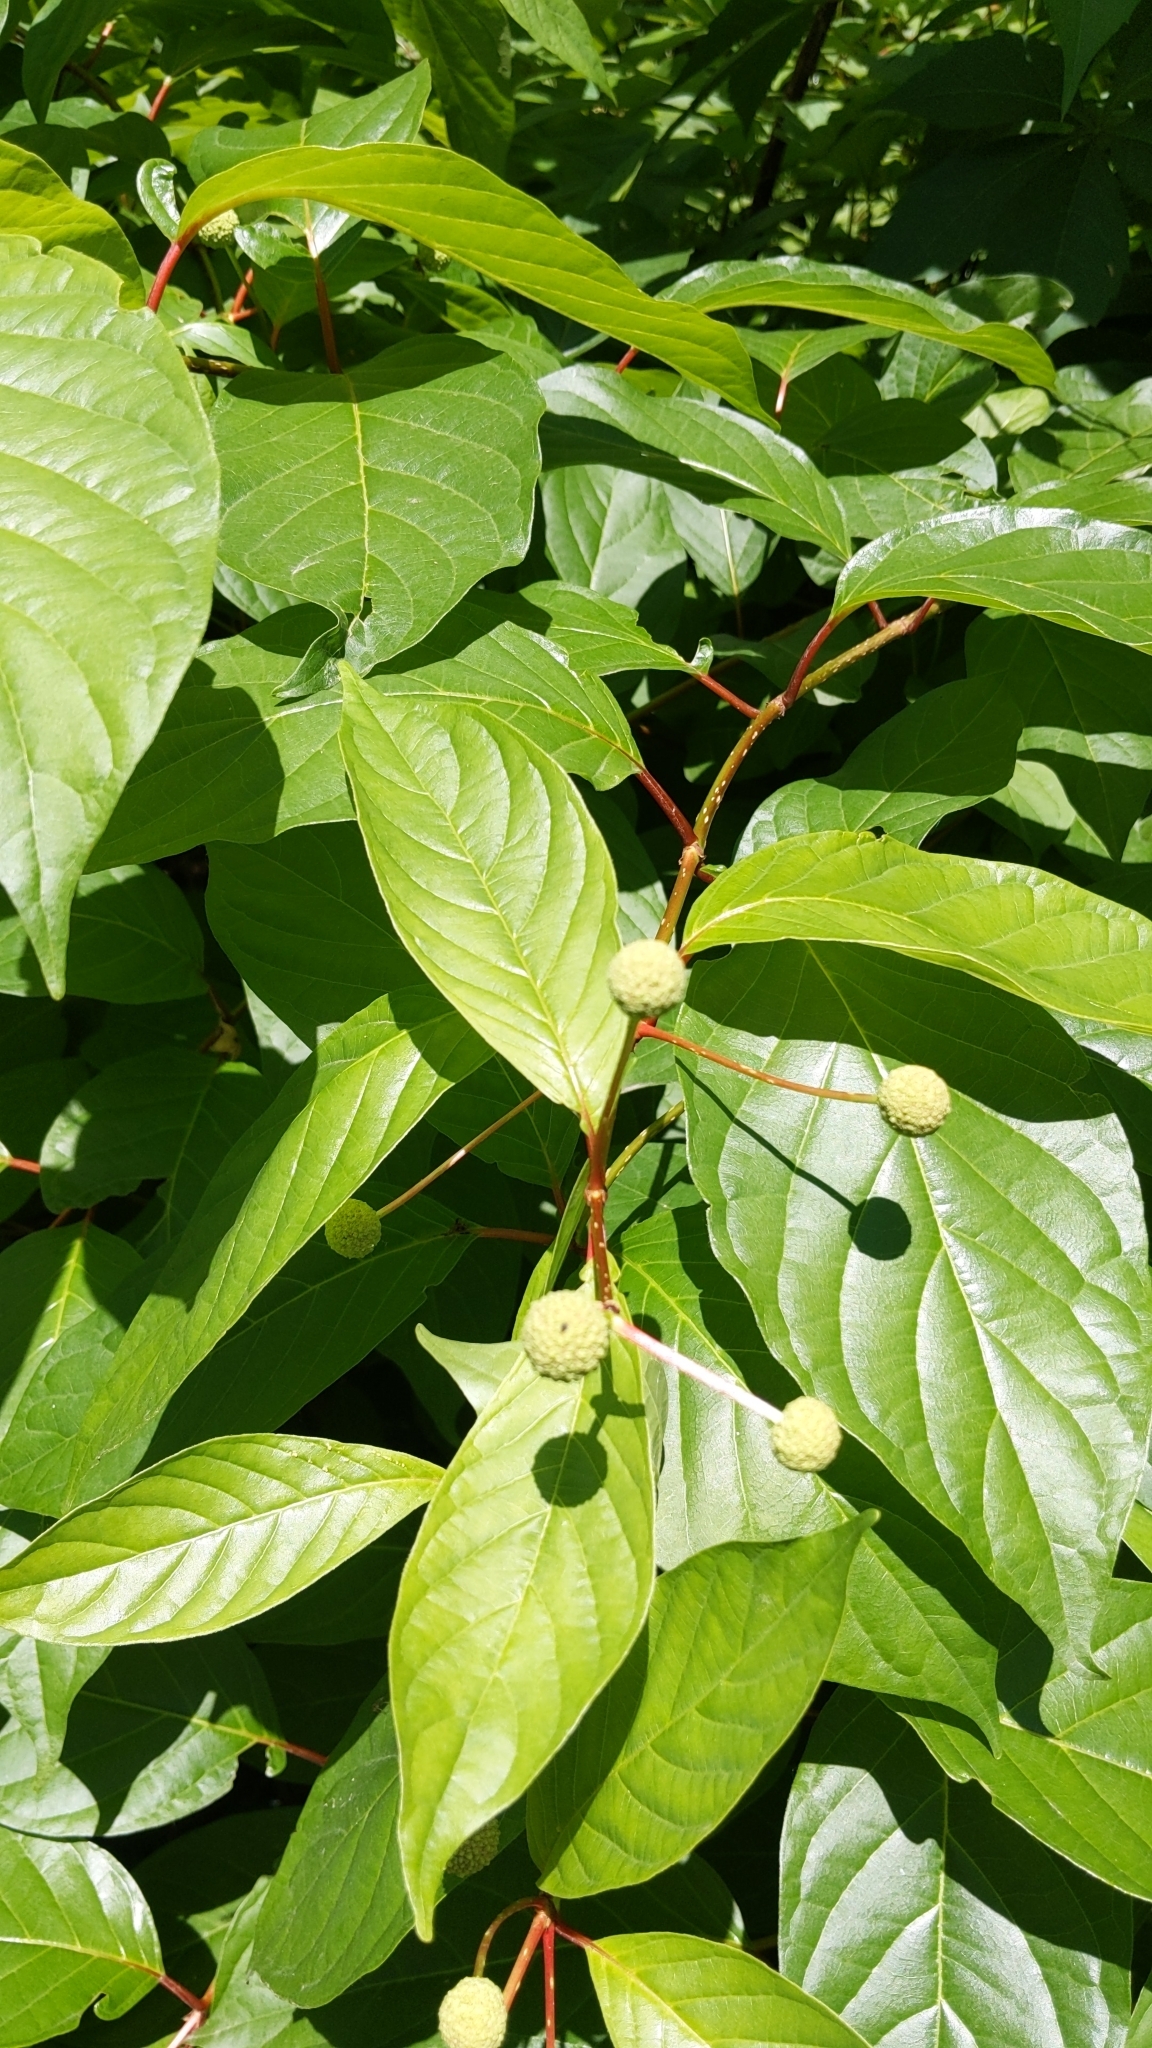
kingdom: Plantae
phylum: Tracheophyta
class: Magnoliopsida
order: Gentianales
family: Rubiaceae
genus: Cephalanthus
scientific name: Cephalanthus occidentalis
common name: Button-willow
